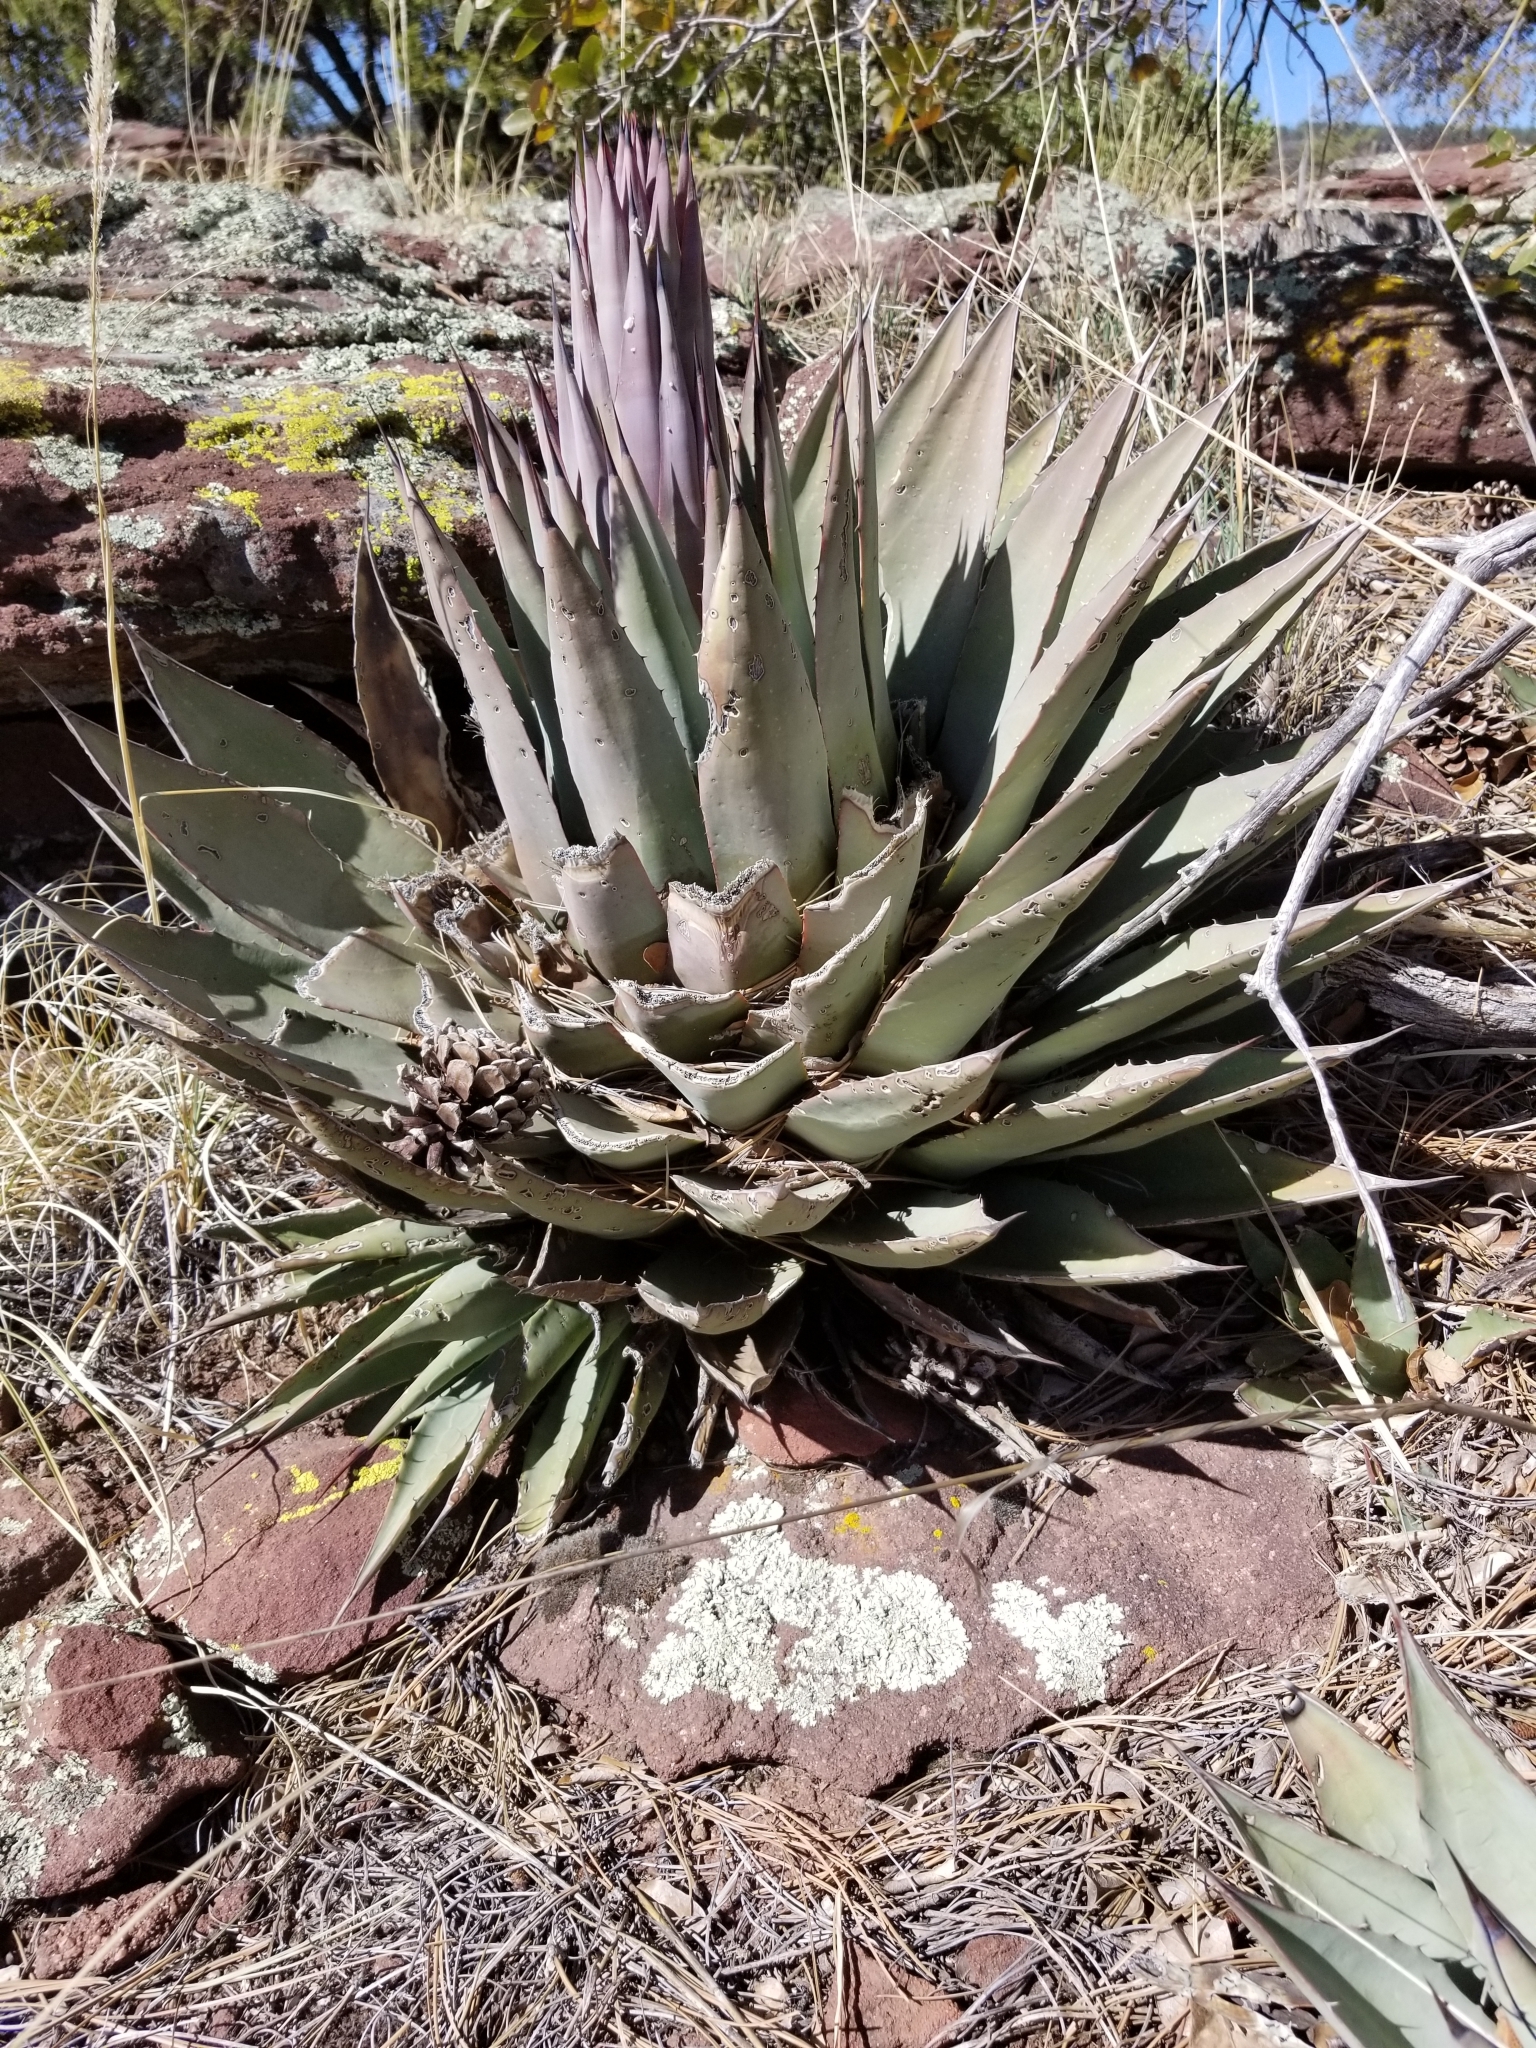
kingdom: Plantae
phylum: Tracheophyta
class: Liliopsida
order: Asparagales
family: Asparagaceae
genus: Agave
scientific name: Agave parryi
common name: Parry's agave
